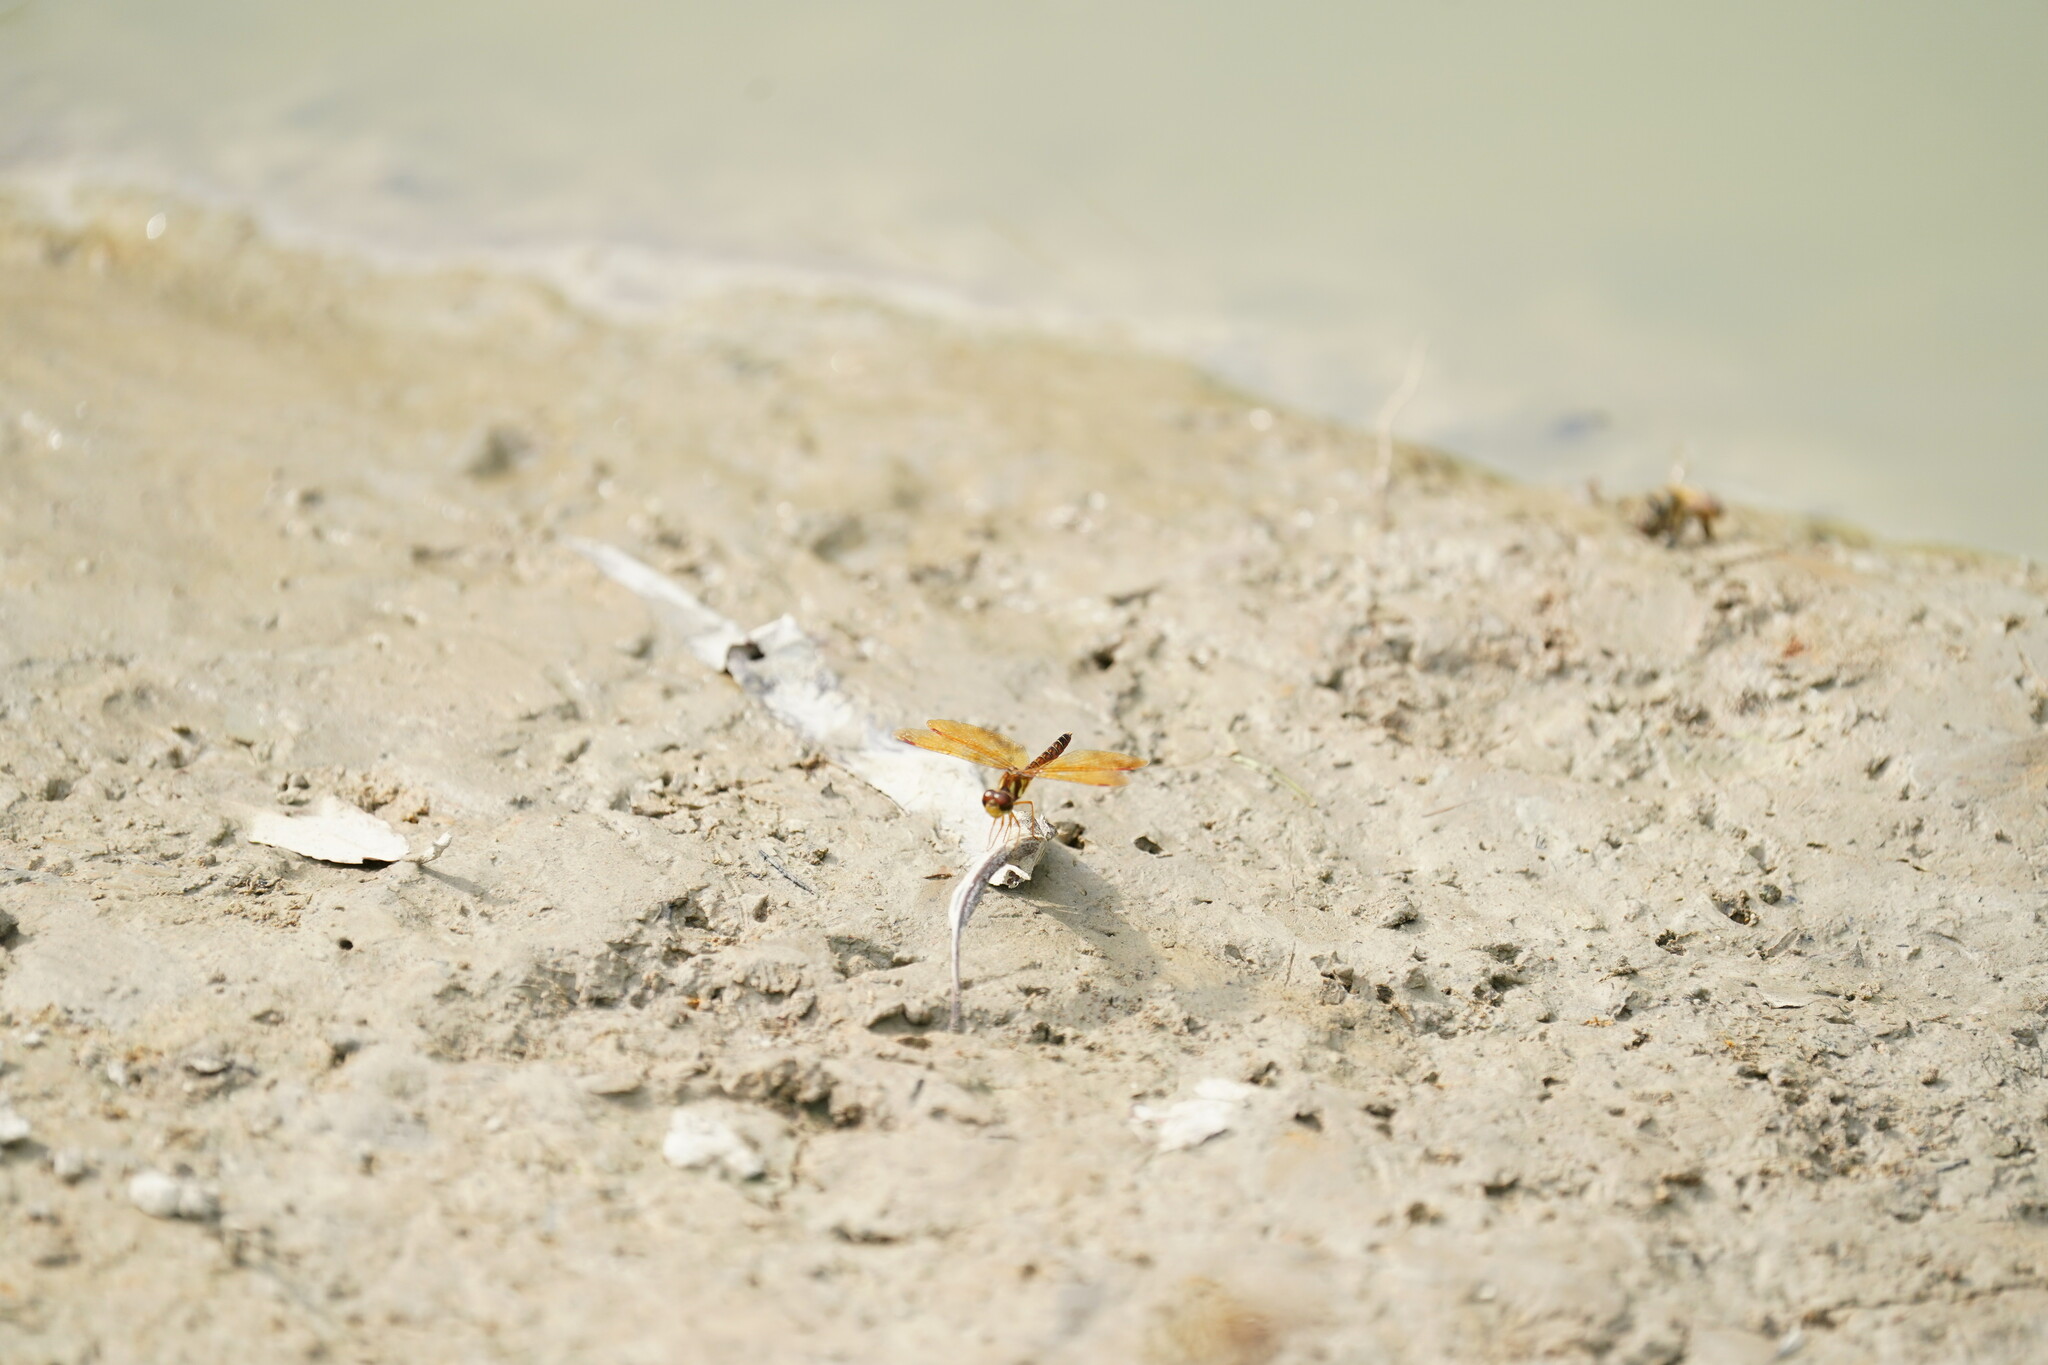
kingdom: Animalia
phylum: Arthropoda
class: Insecta
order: Odonata
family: Libellulidae
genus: Perithemis
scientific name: Perithemis tenera
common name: Eastern amberwing
